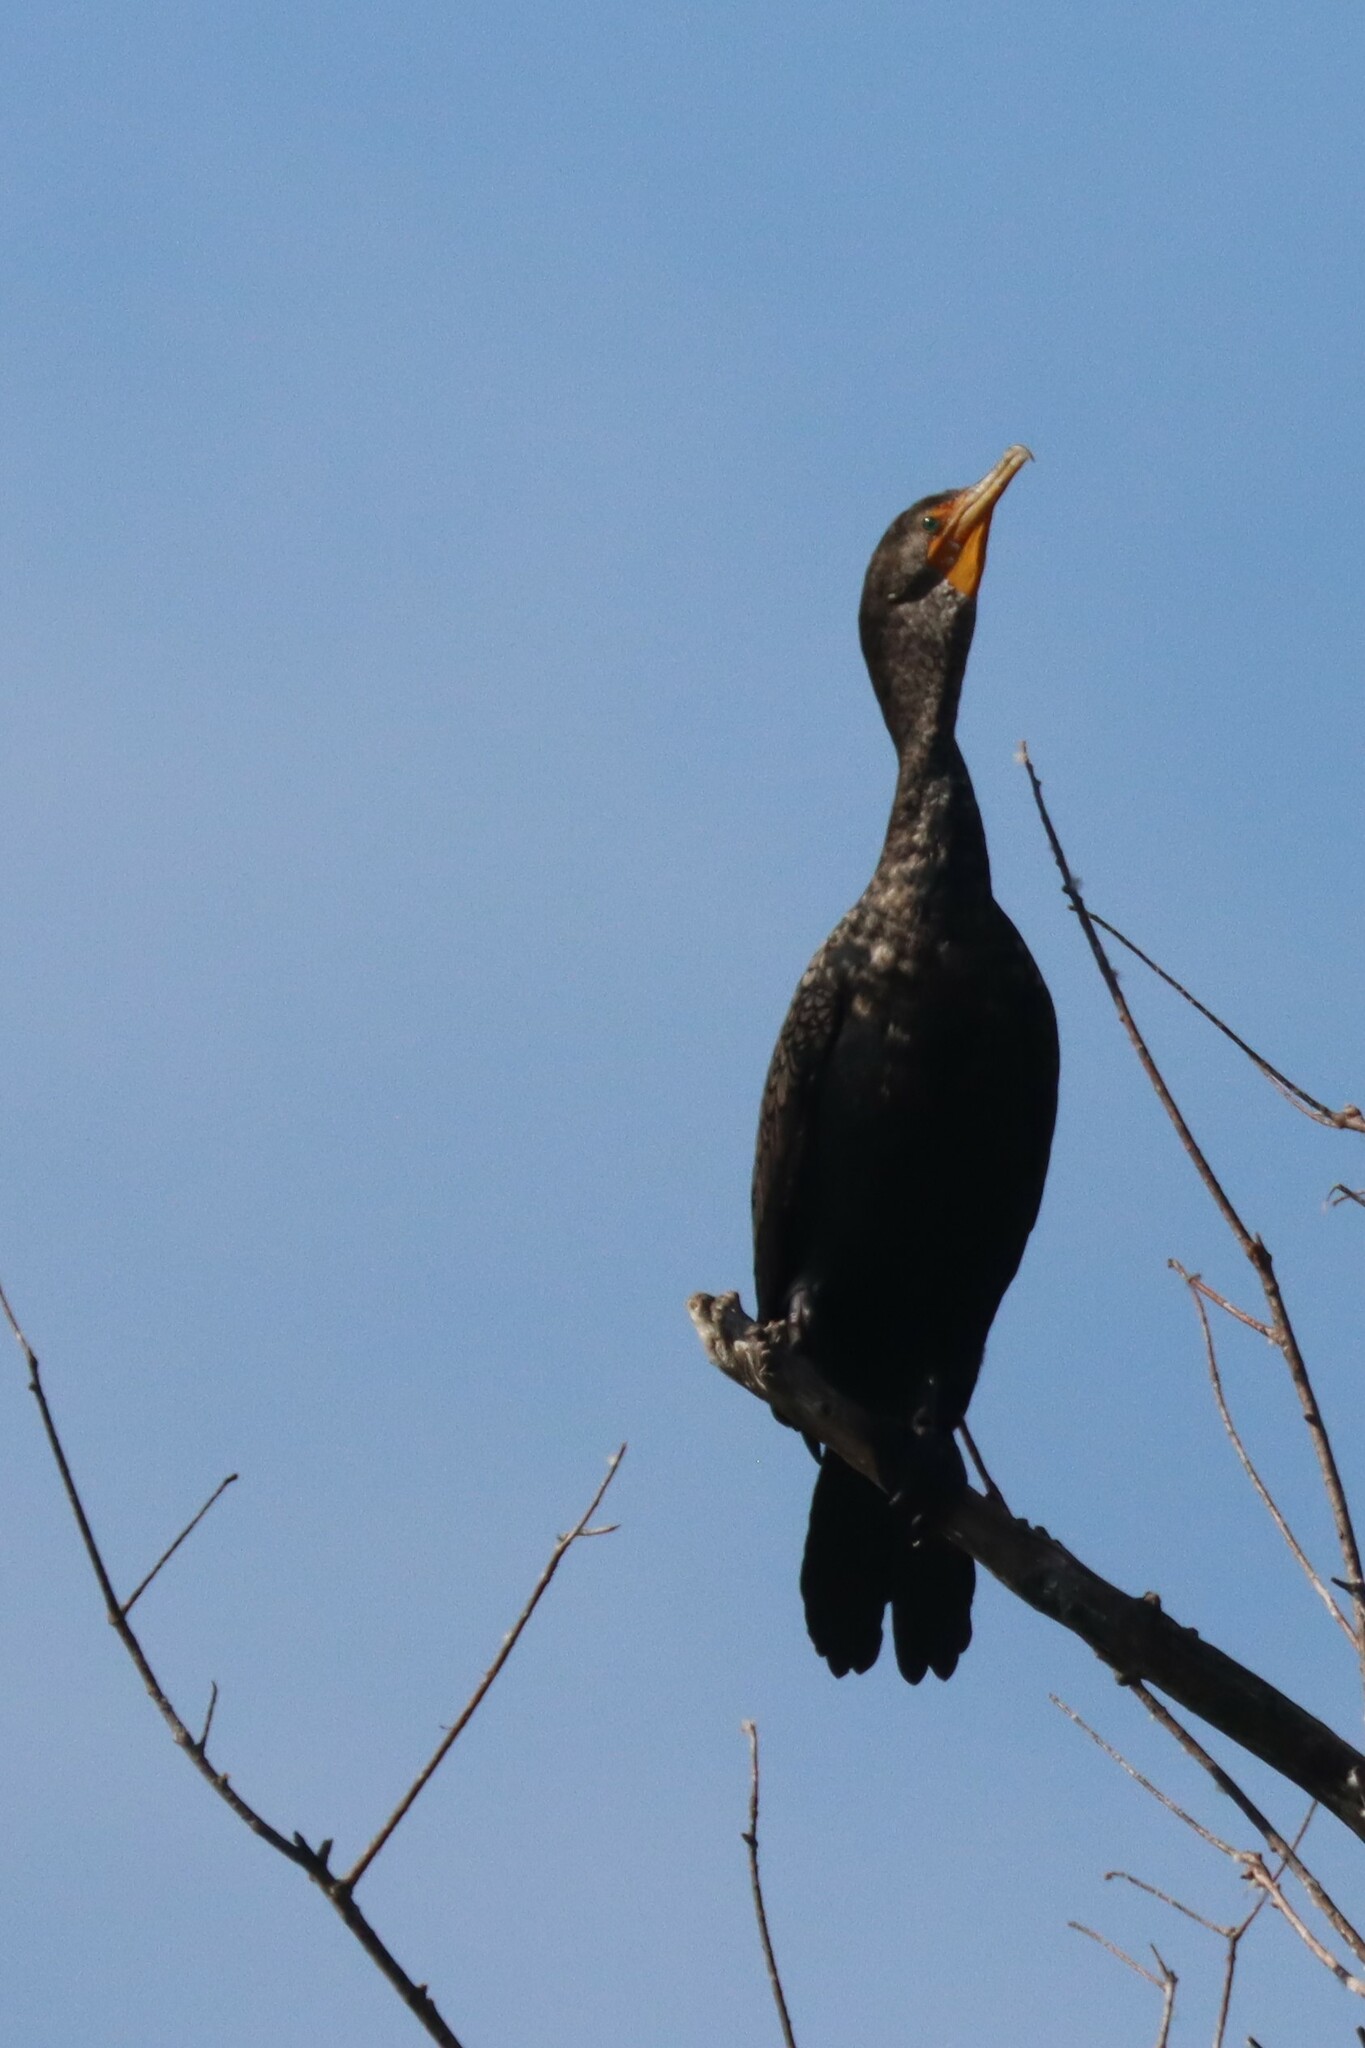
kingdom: Animalia
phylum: Chordata
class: Aves
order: Suliformes
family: Phalacrocoracidae
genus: Phalacrocorax
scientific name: Phalacrocorax auritus
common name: Double-crested cormorant
